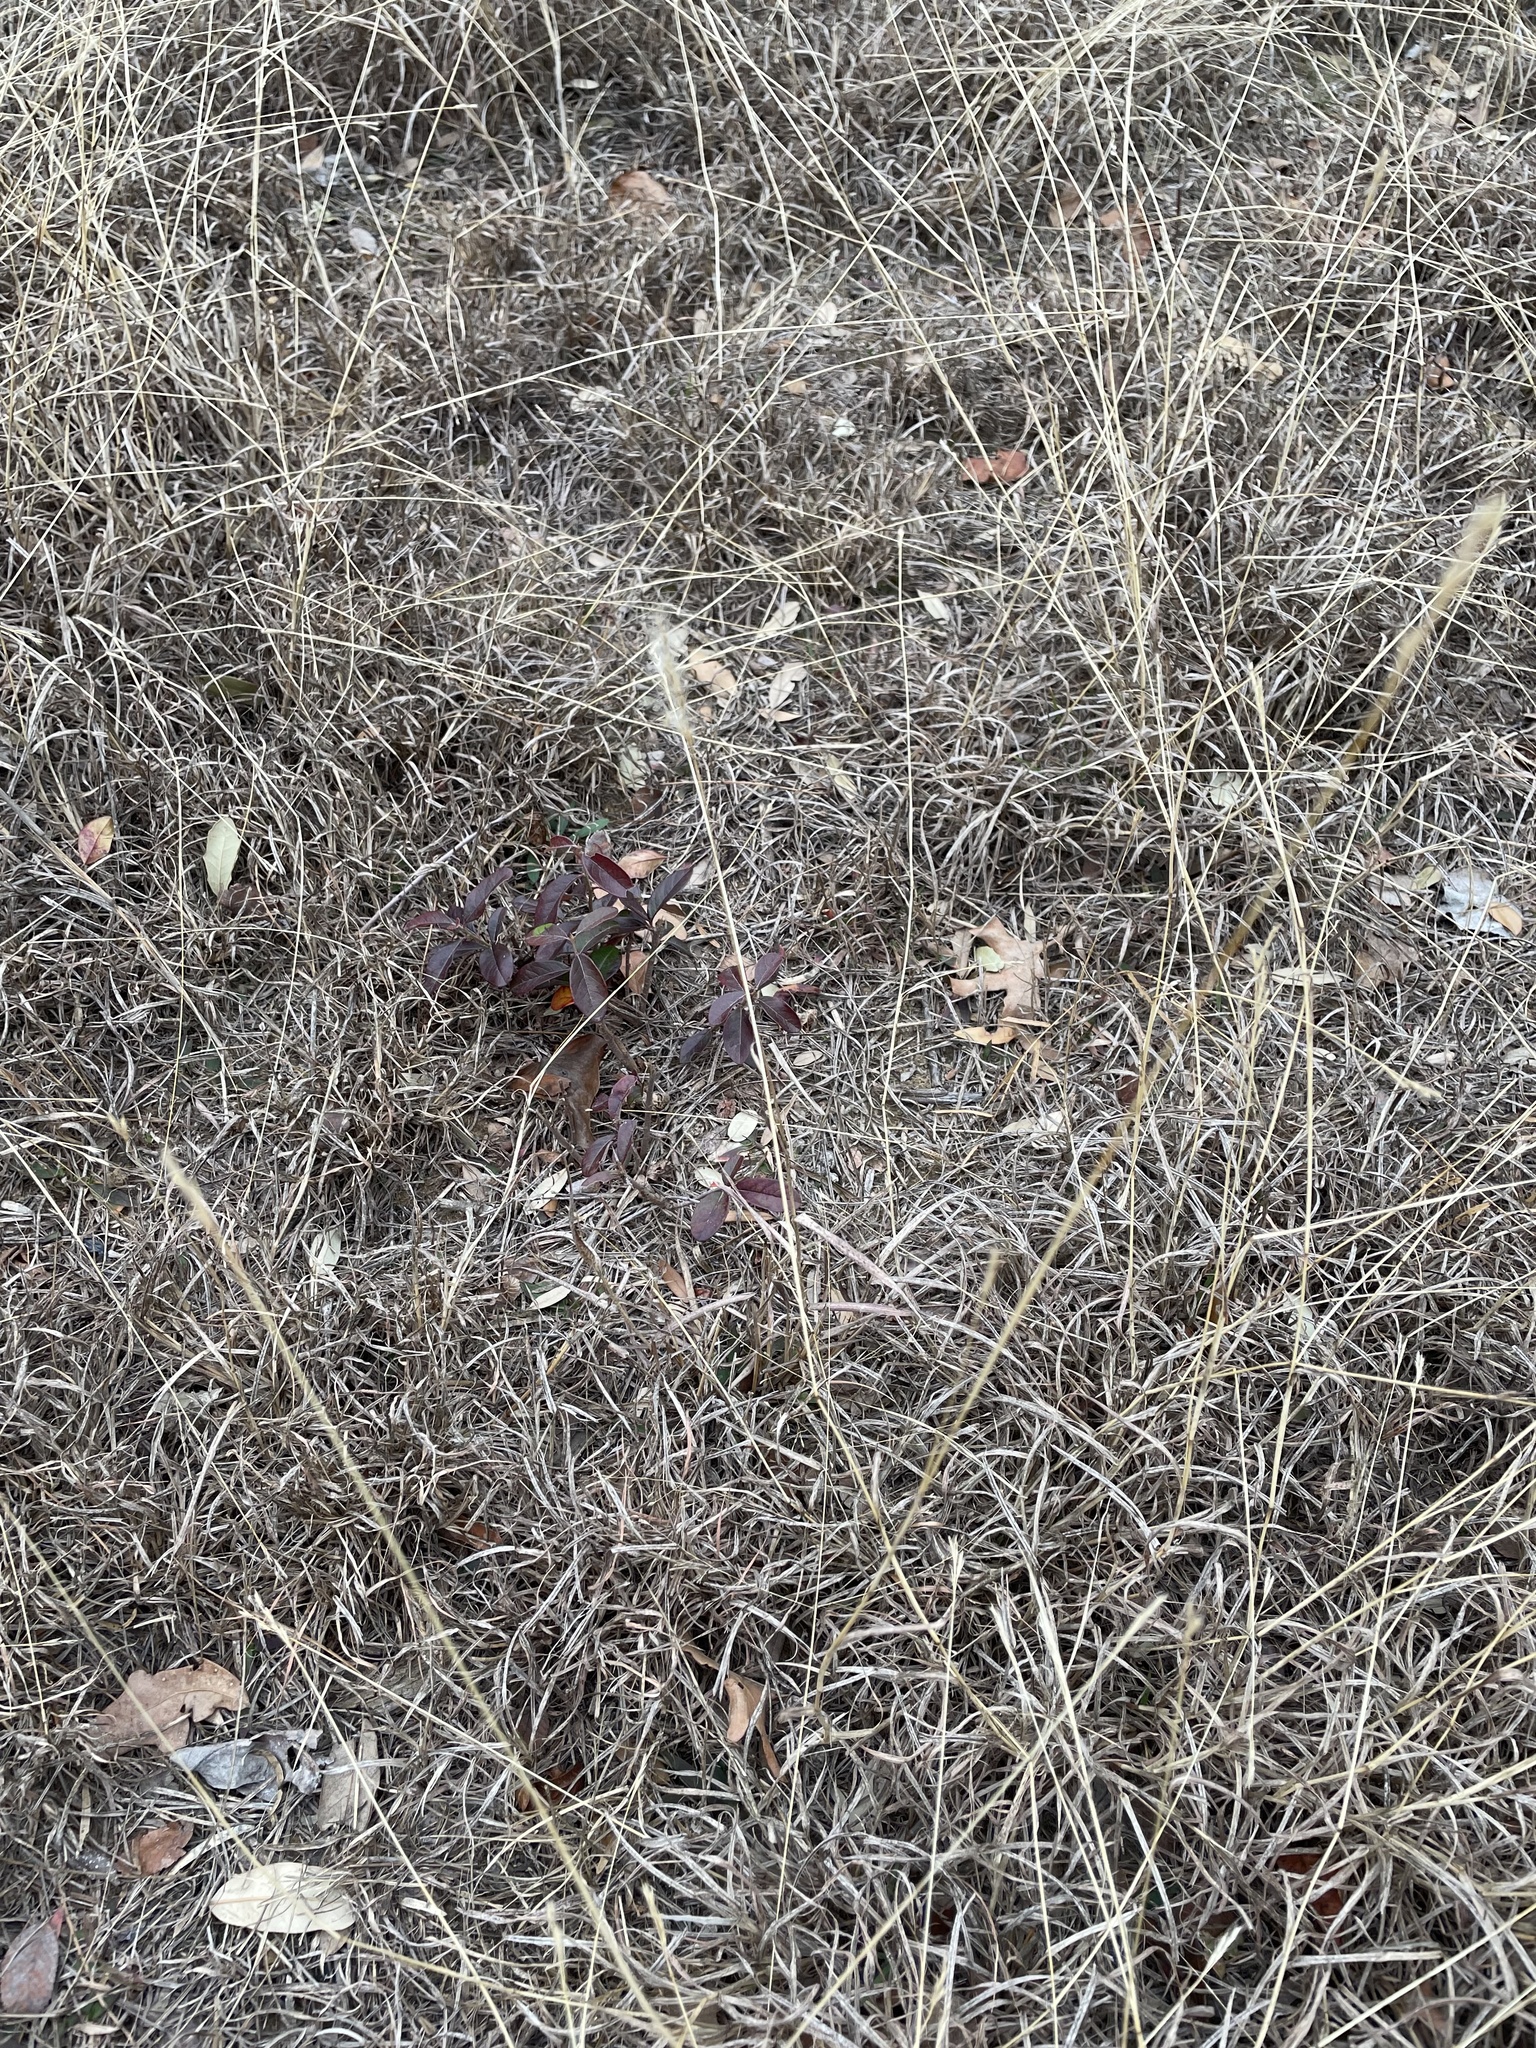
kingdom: Plantae
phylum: Tracheophyta
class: Liliopsida
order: Poales
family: Poaceae
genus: Bothriochloa
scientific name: Bothriochloa torreyana
